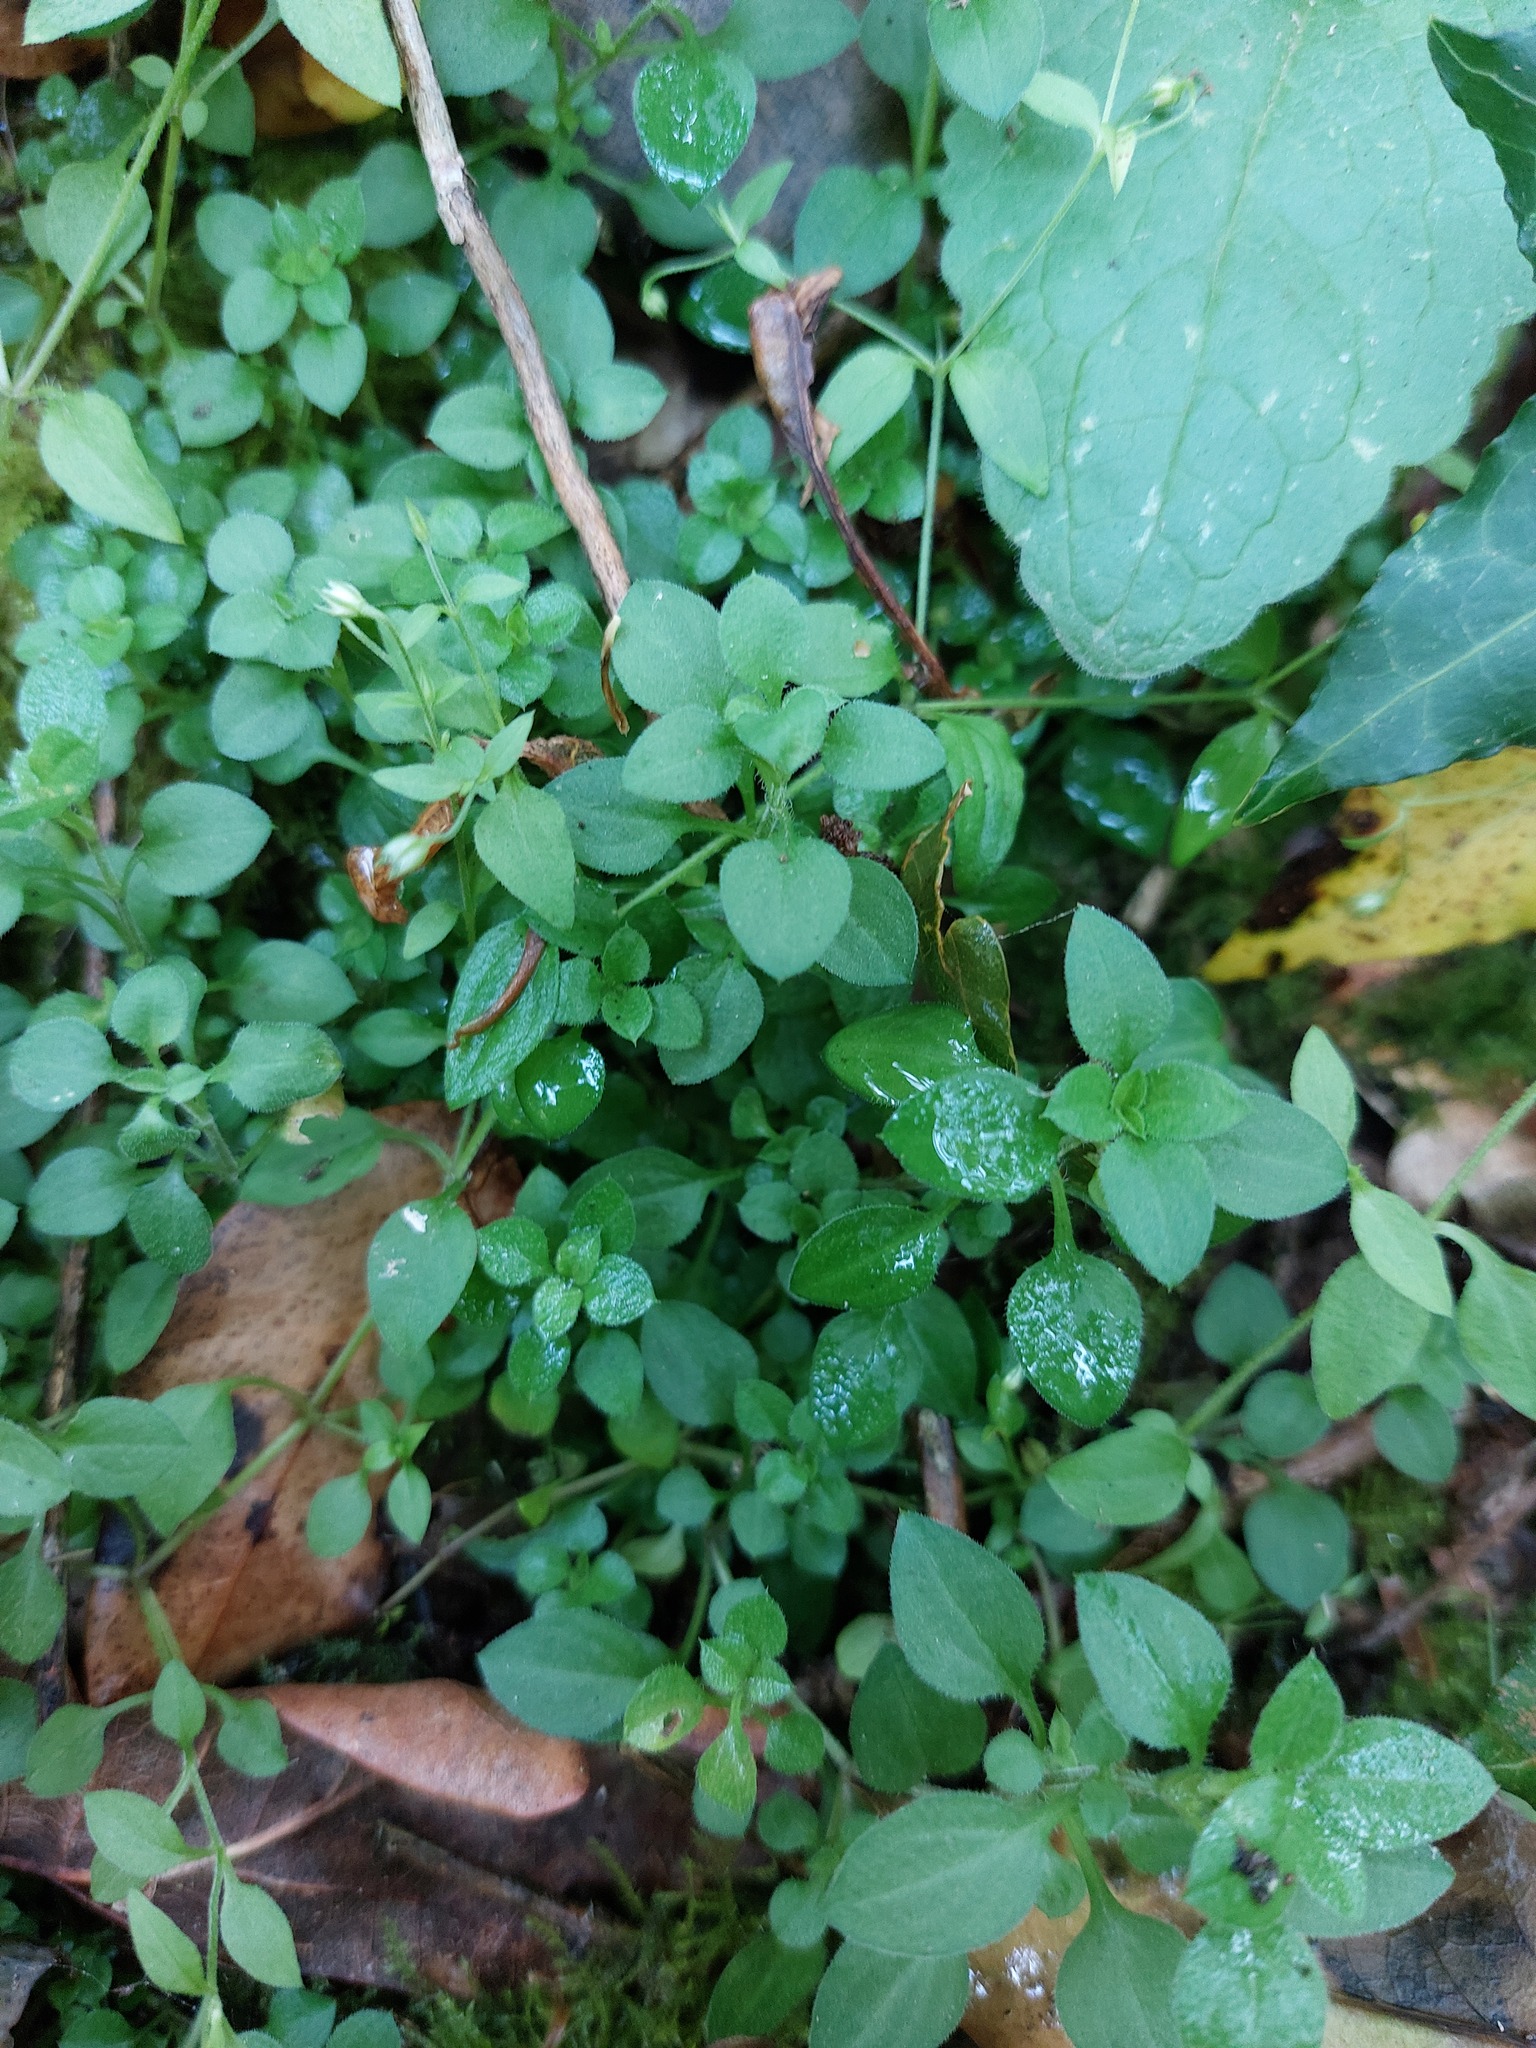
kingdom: Plantae
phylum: Tracheophyta
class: Magnoliopsida
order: Caryophyllales
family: Caryophyllaceae
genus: Moehringia
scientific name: Moehringia trinervia
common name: Three-nerved sandwort
